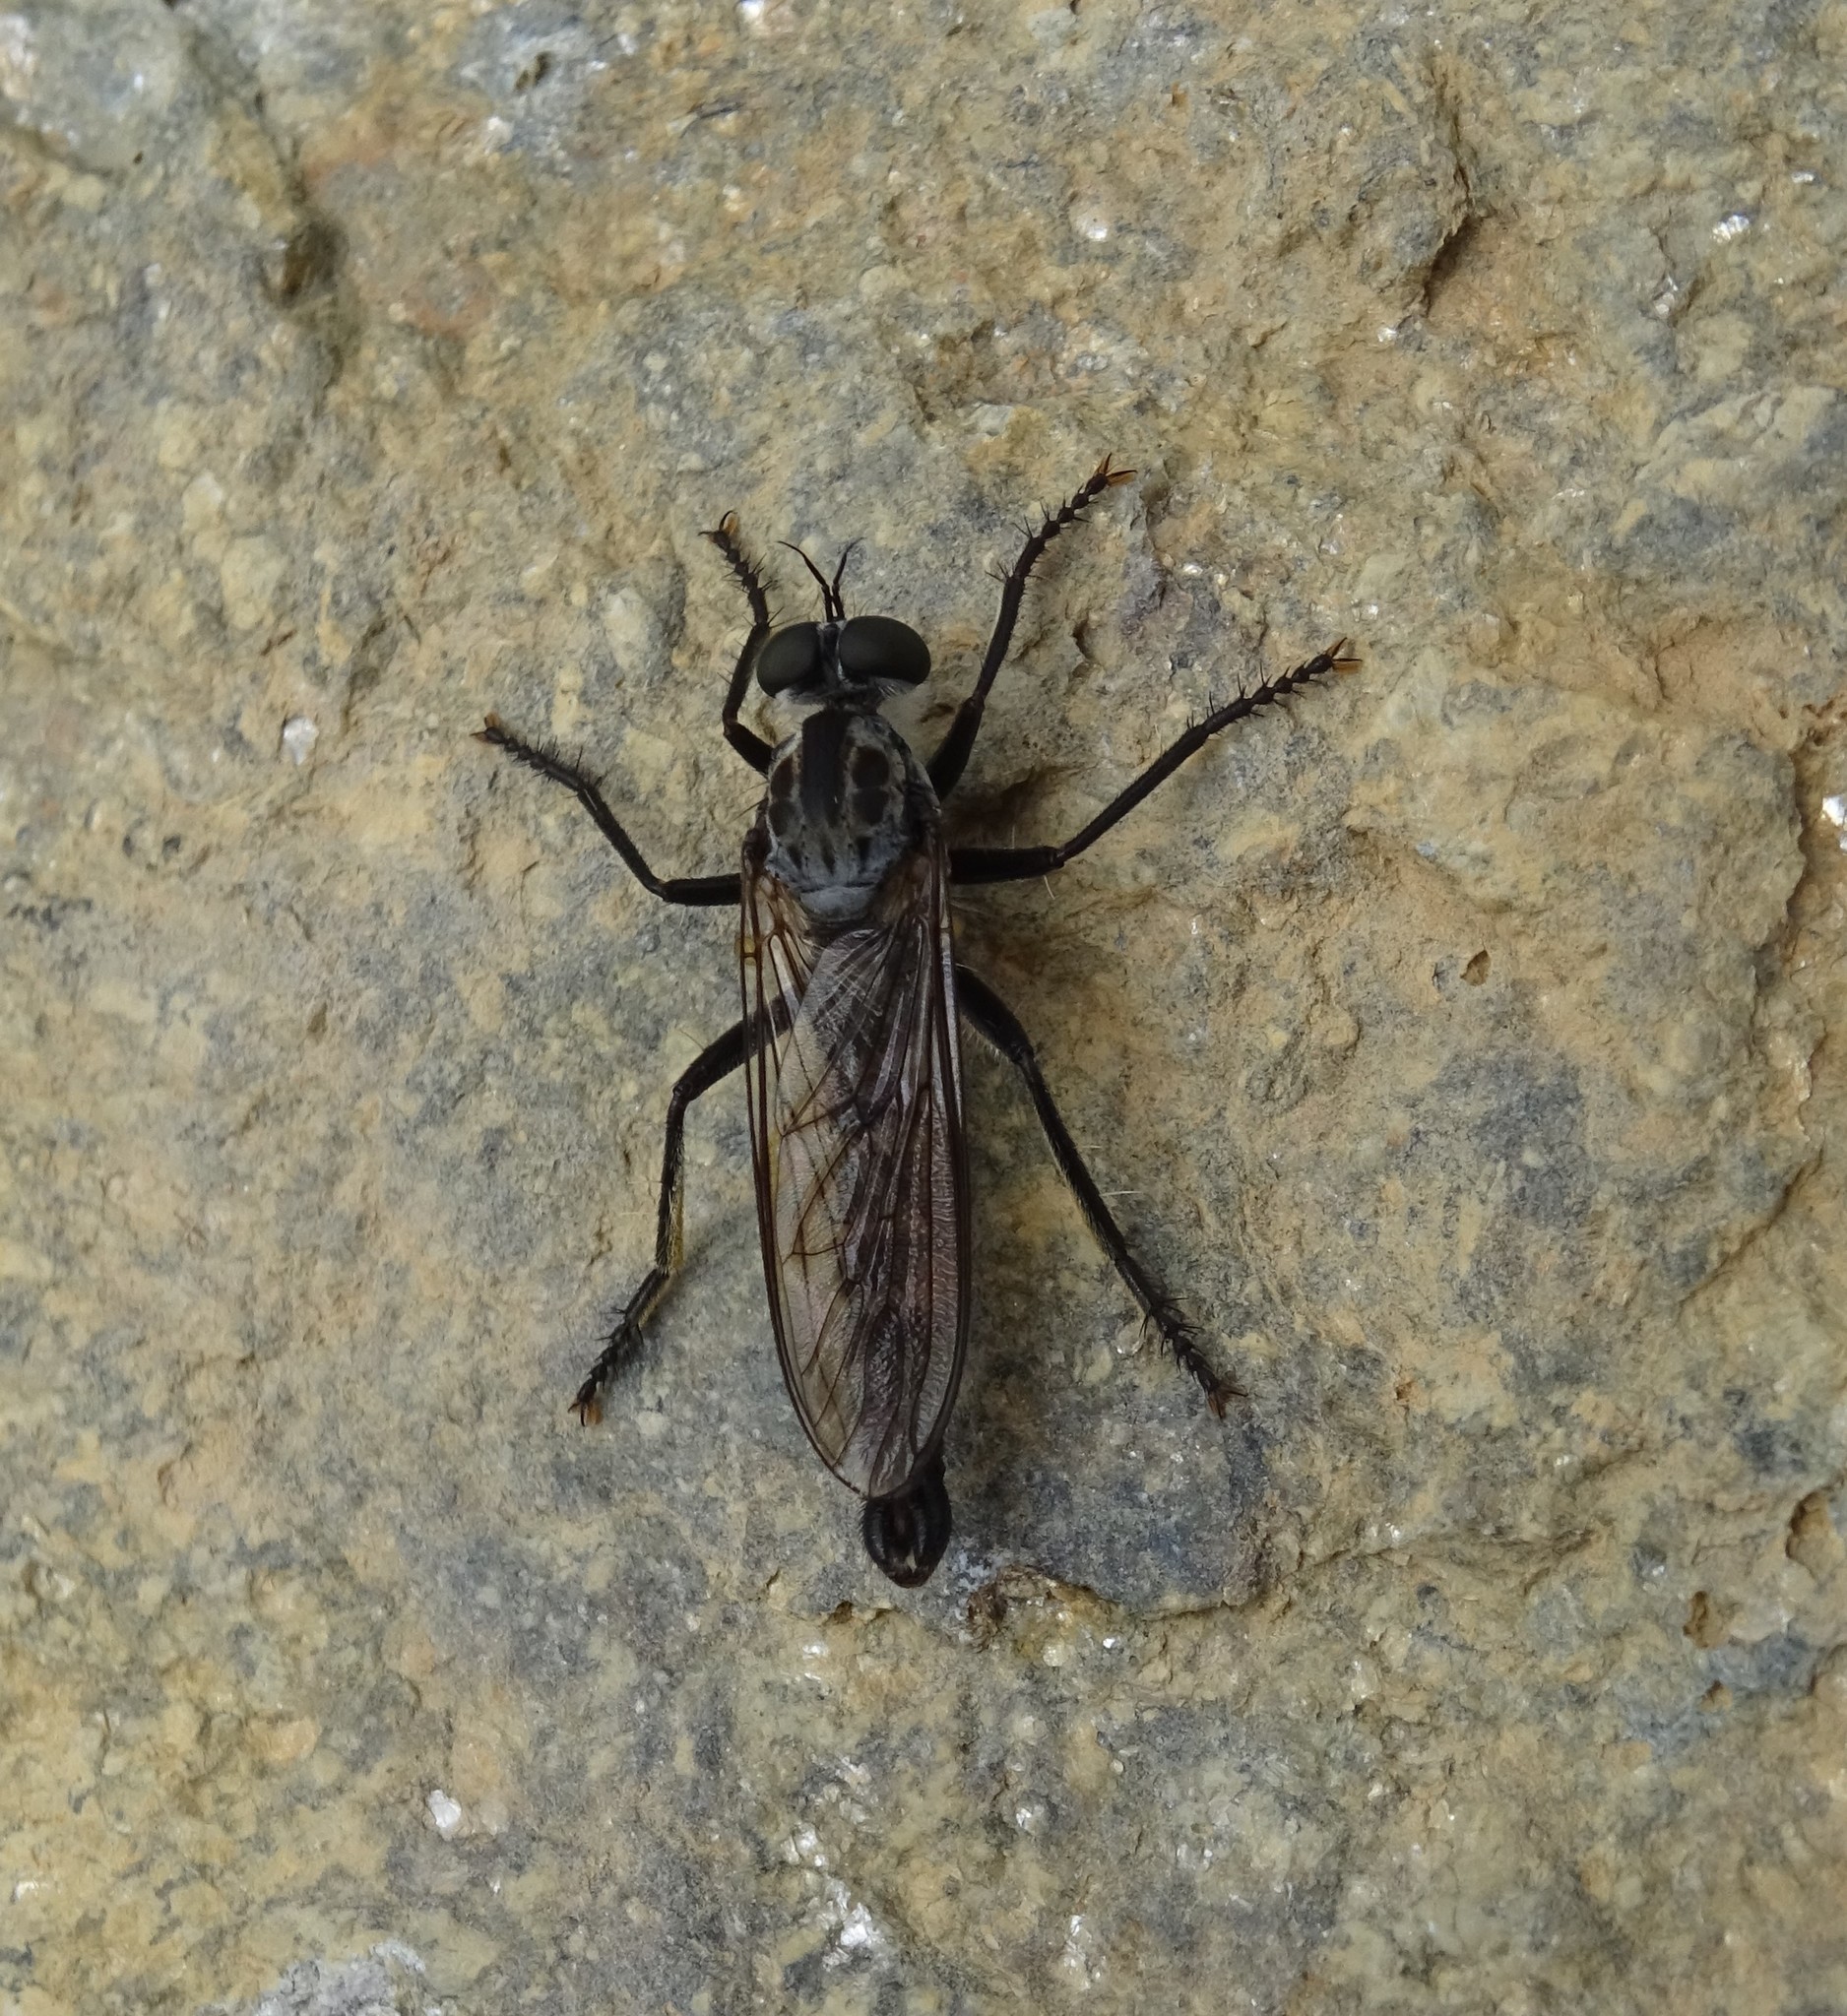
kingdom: Animalia
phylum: Arthropoda
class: Insecta
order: Diptera
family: Asilidae
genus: Paritamus
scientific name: Paritamus alpinus
